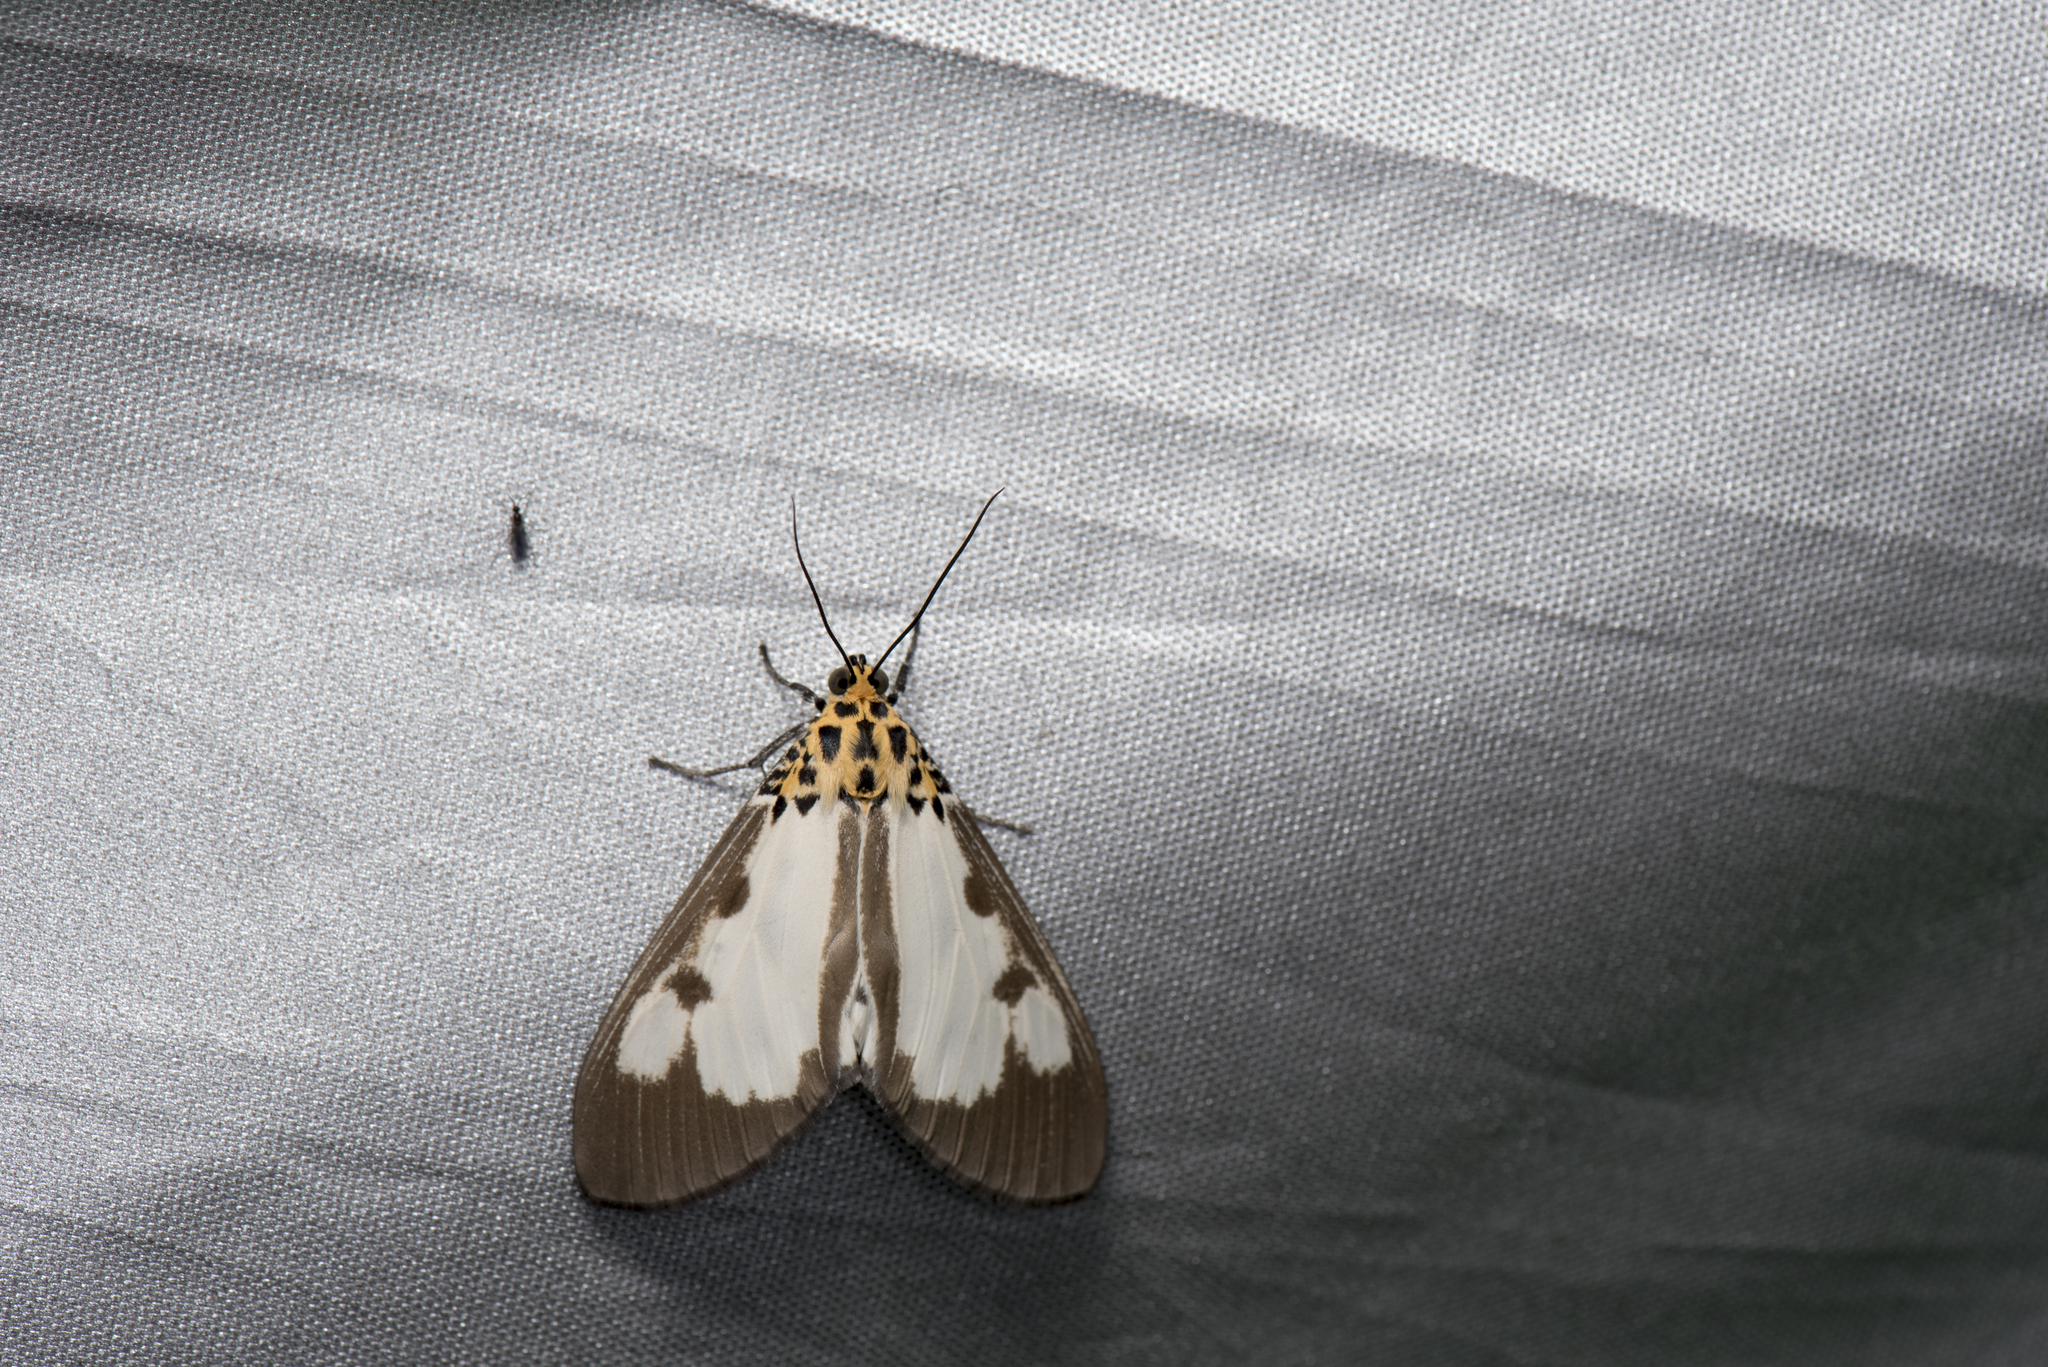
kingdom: Animalia
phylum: Arthropoda
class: Insecta
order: Lepidoptera
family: Erebidae
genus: Asota
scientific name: Asota plana
